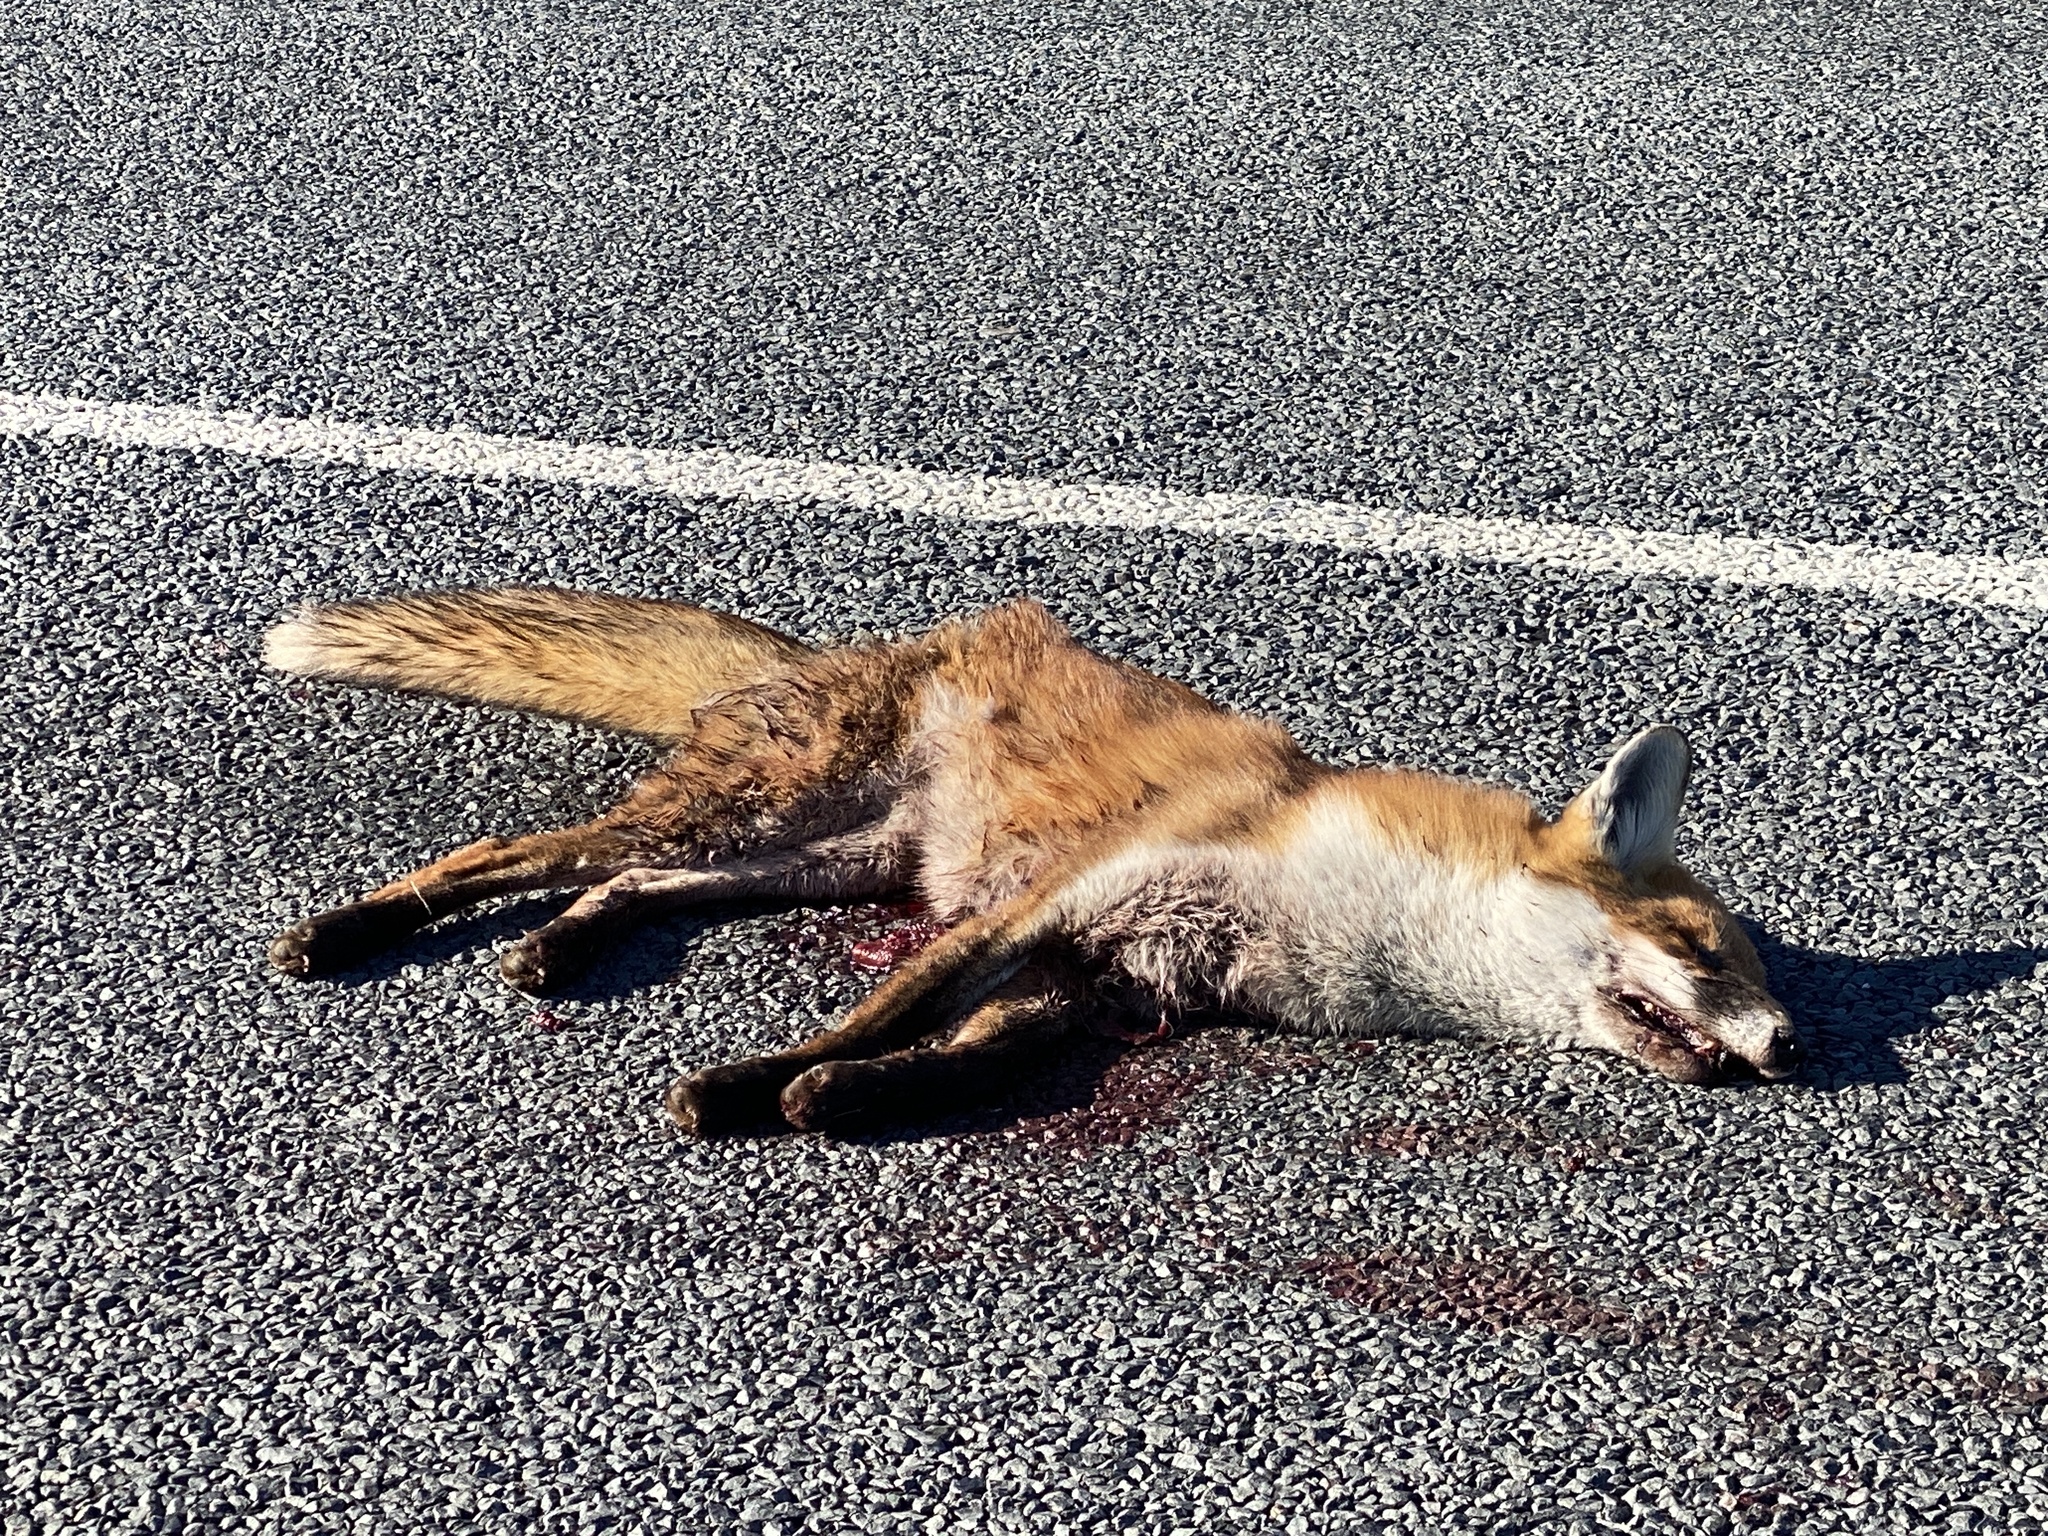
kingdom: Animalia
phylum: Chordata
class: Mammalia
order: Carnivora
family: Canidae
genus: Vulpes
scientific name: Vulpes vulpes
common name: Red fox
